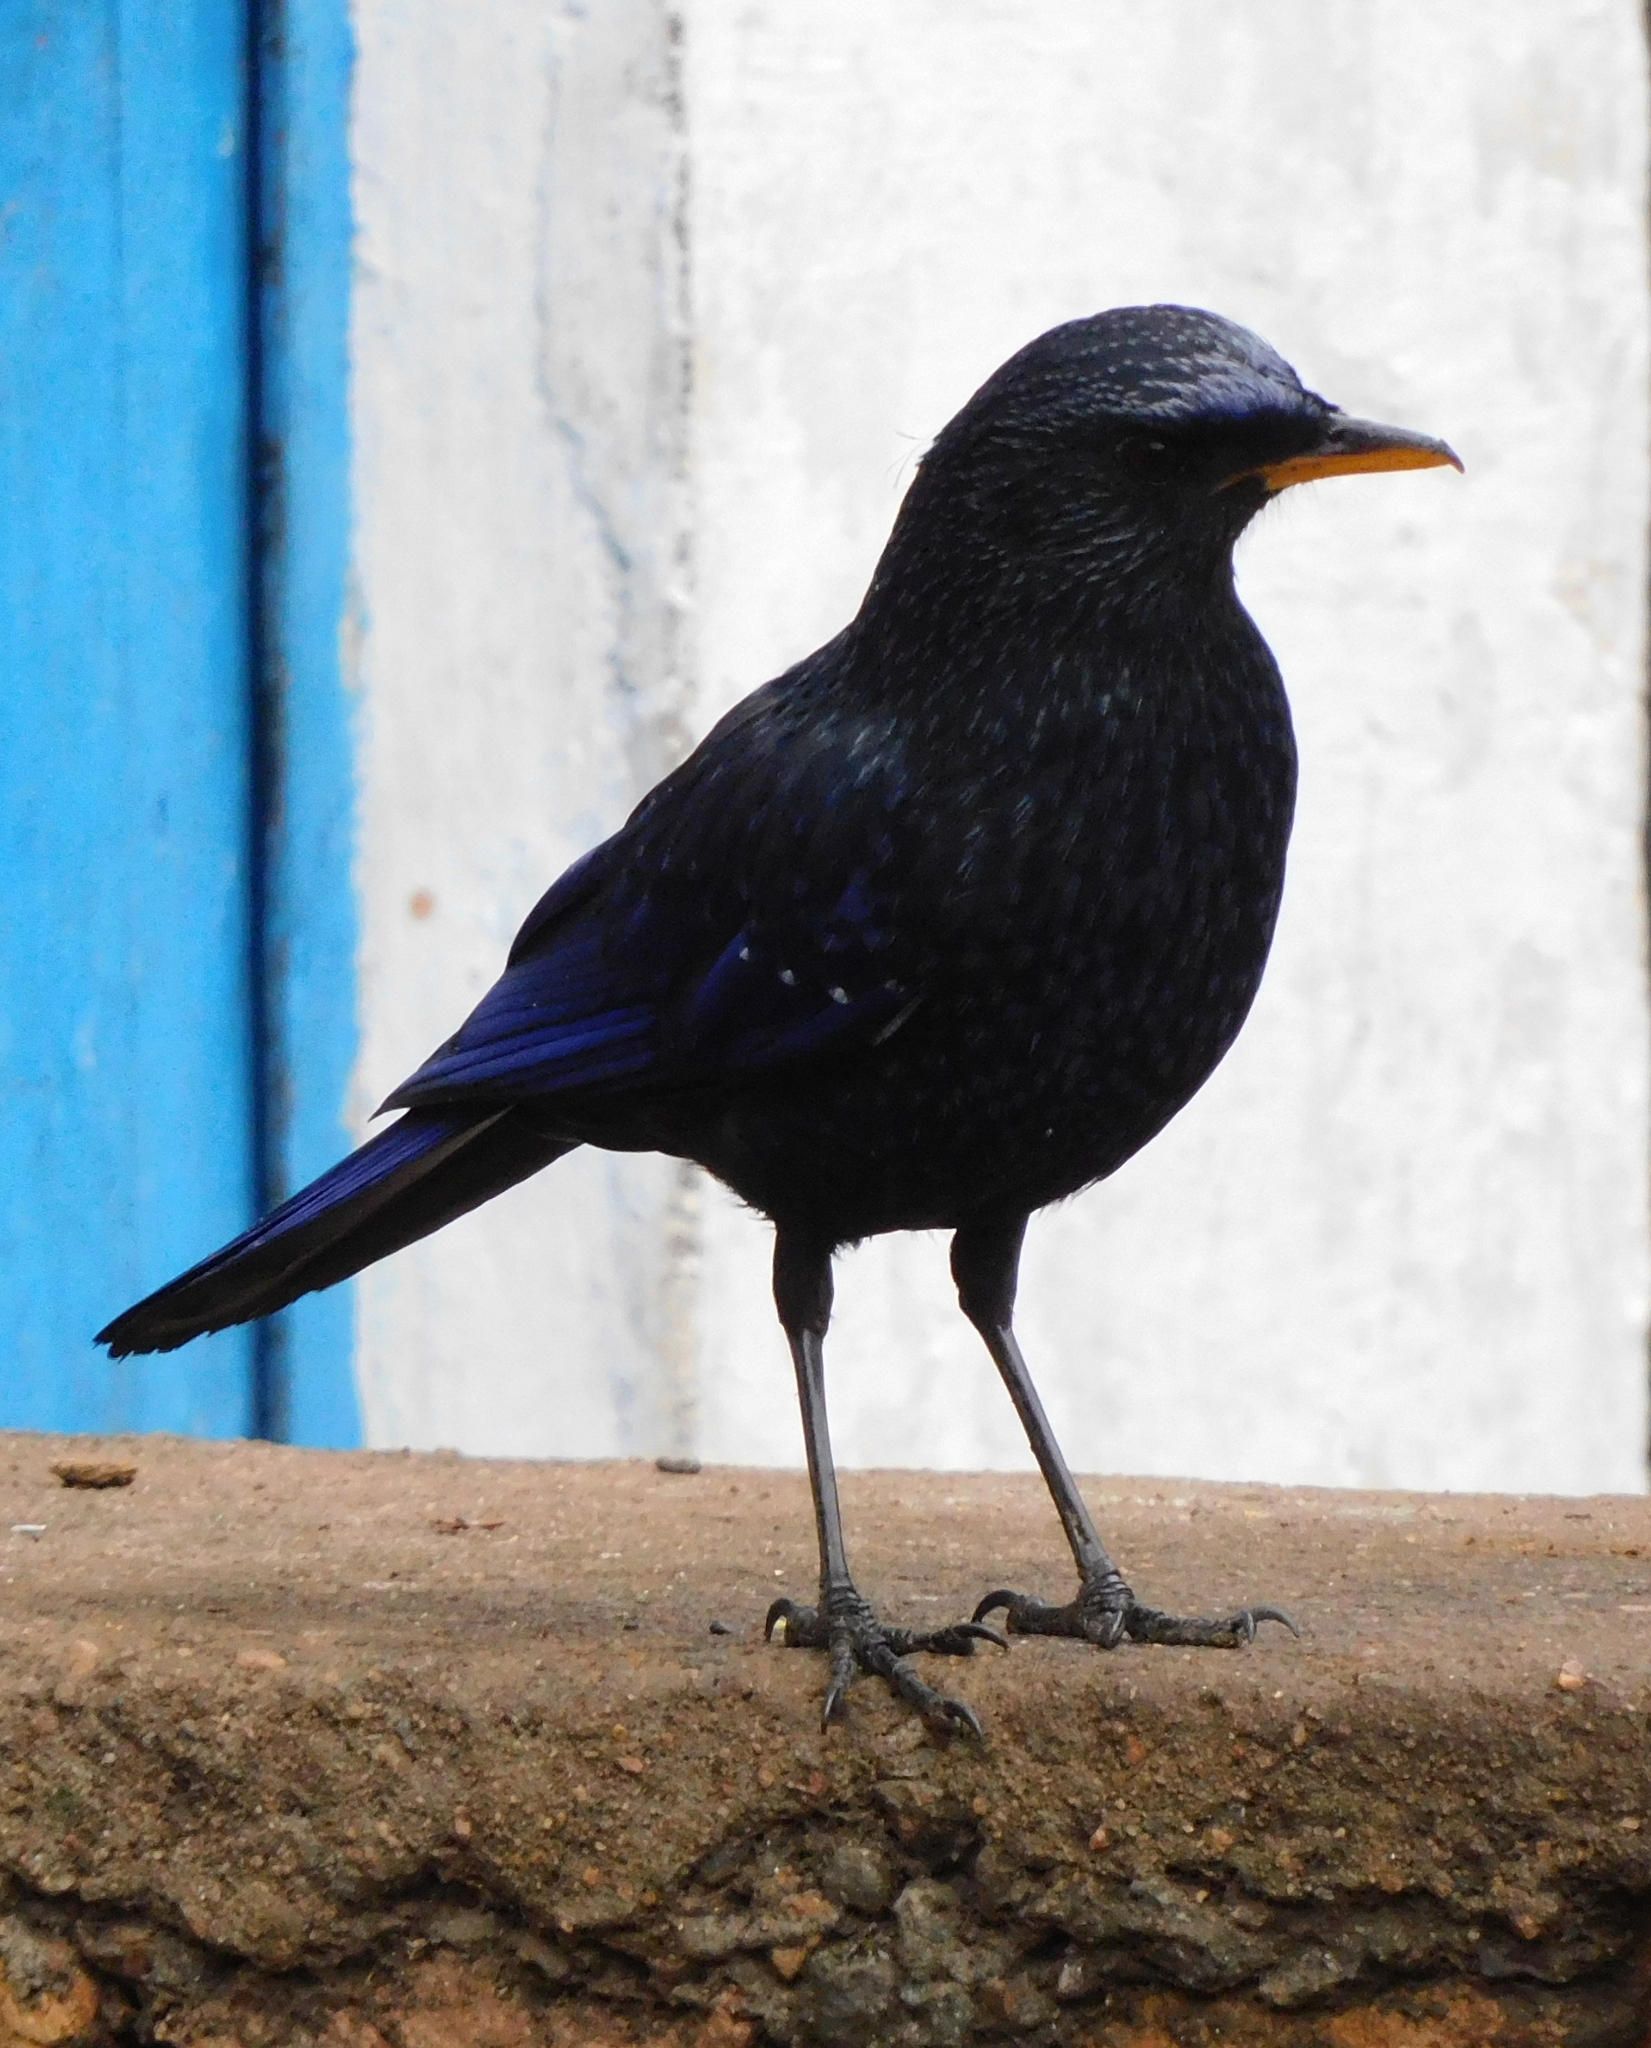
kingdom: Animalia
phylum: Chordata
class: Aves
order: Passeriformes
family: Muscicapidae
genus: Myophonus
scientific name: Myophonus caeruleus
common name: Blue whistling-thrush
